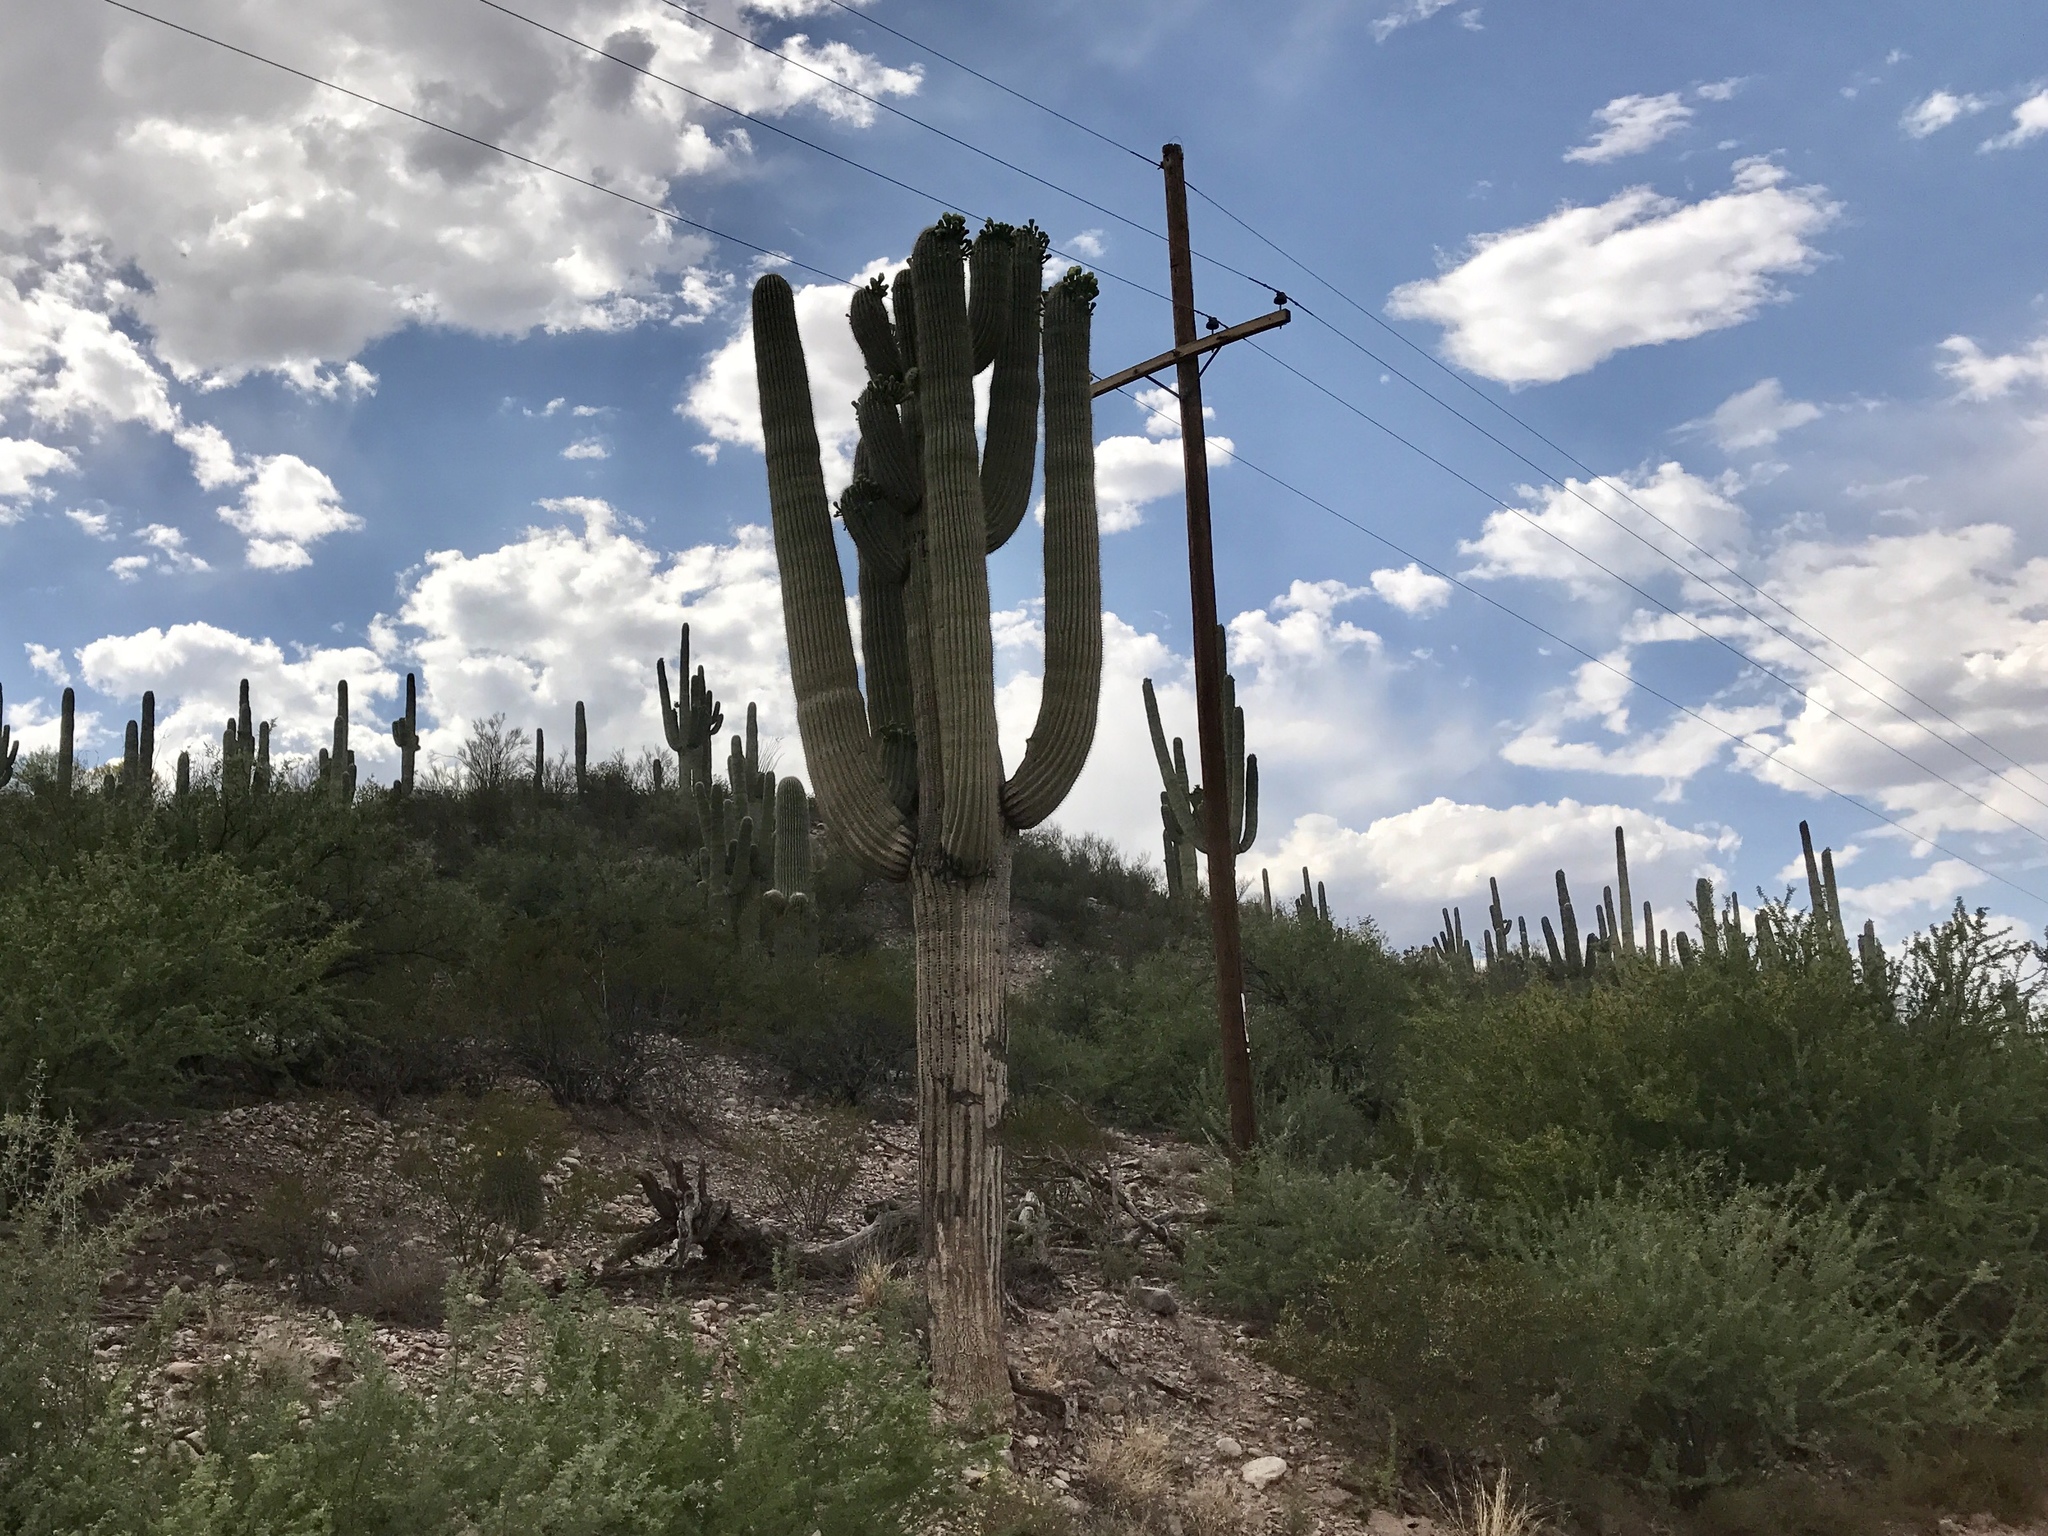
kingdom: Plantae
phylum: Tracheophyta
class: Magnoliopsida
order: Caryophyllales
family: Cactaceae
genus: Carnegiea
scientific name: Carnegiea gigantea
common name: Saguaro
